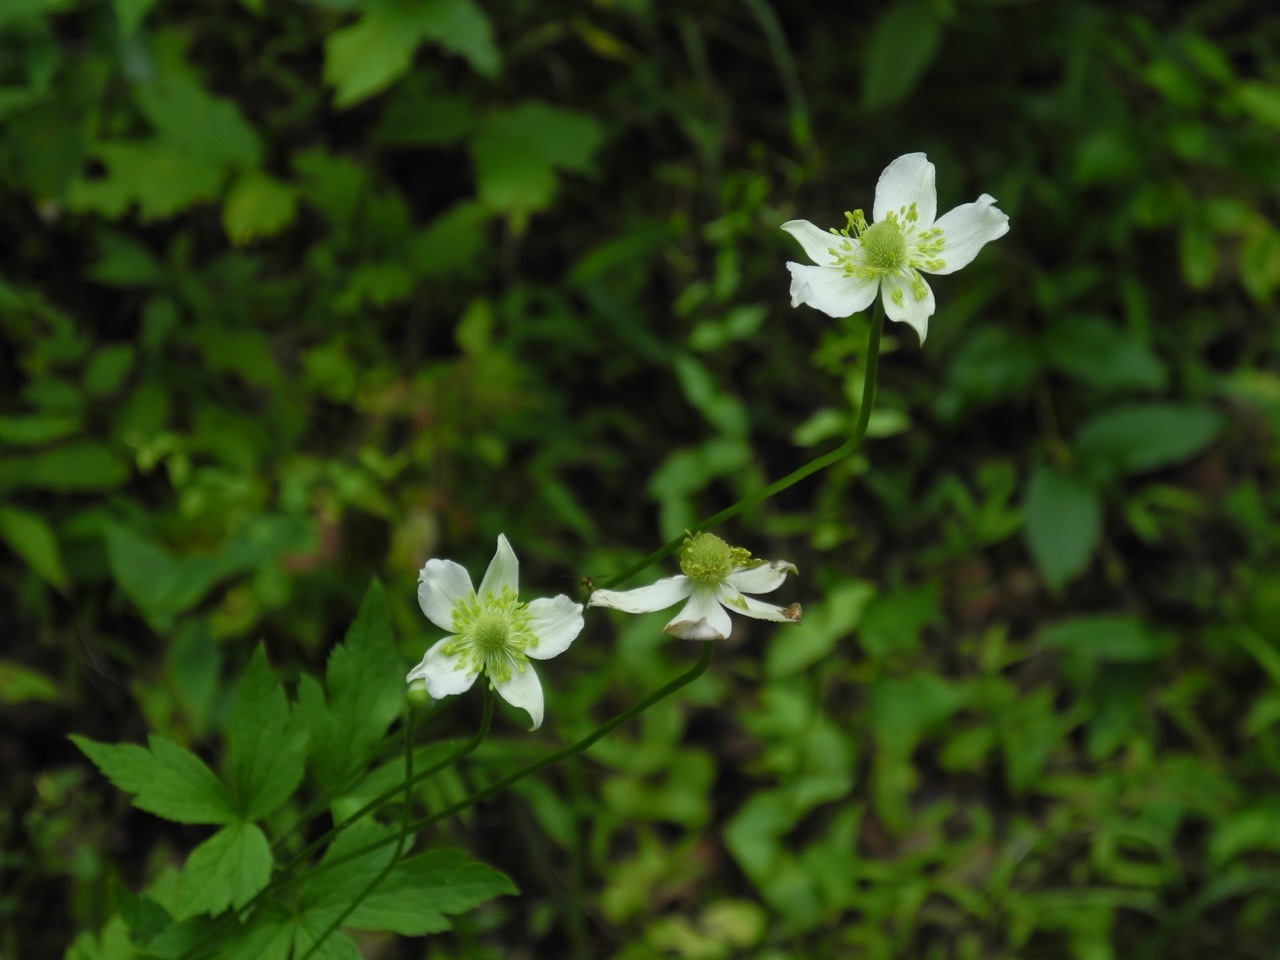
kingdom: Plantae
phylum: Tracheophyta
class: Magnoliopsida
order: Ranunculales
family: Ranunculaceae
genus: Anemone
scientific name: Anemone virginiana
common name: Tall anemone
